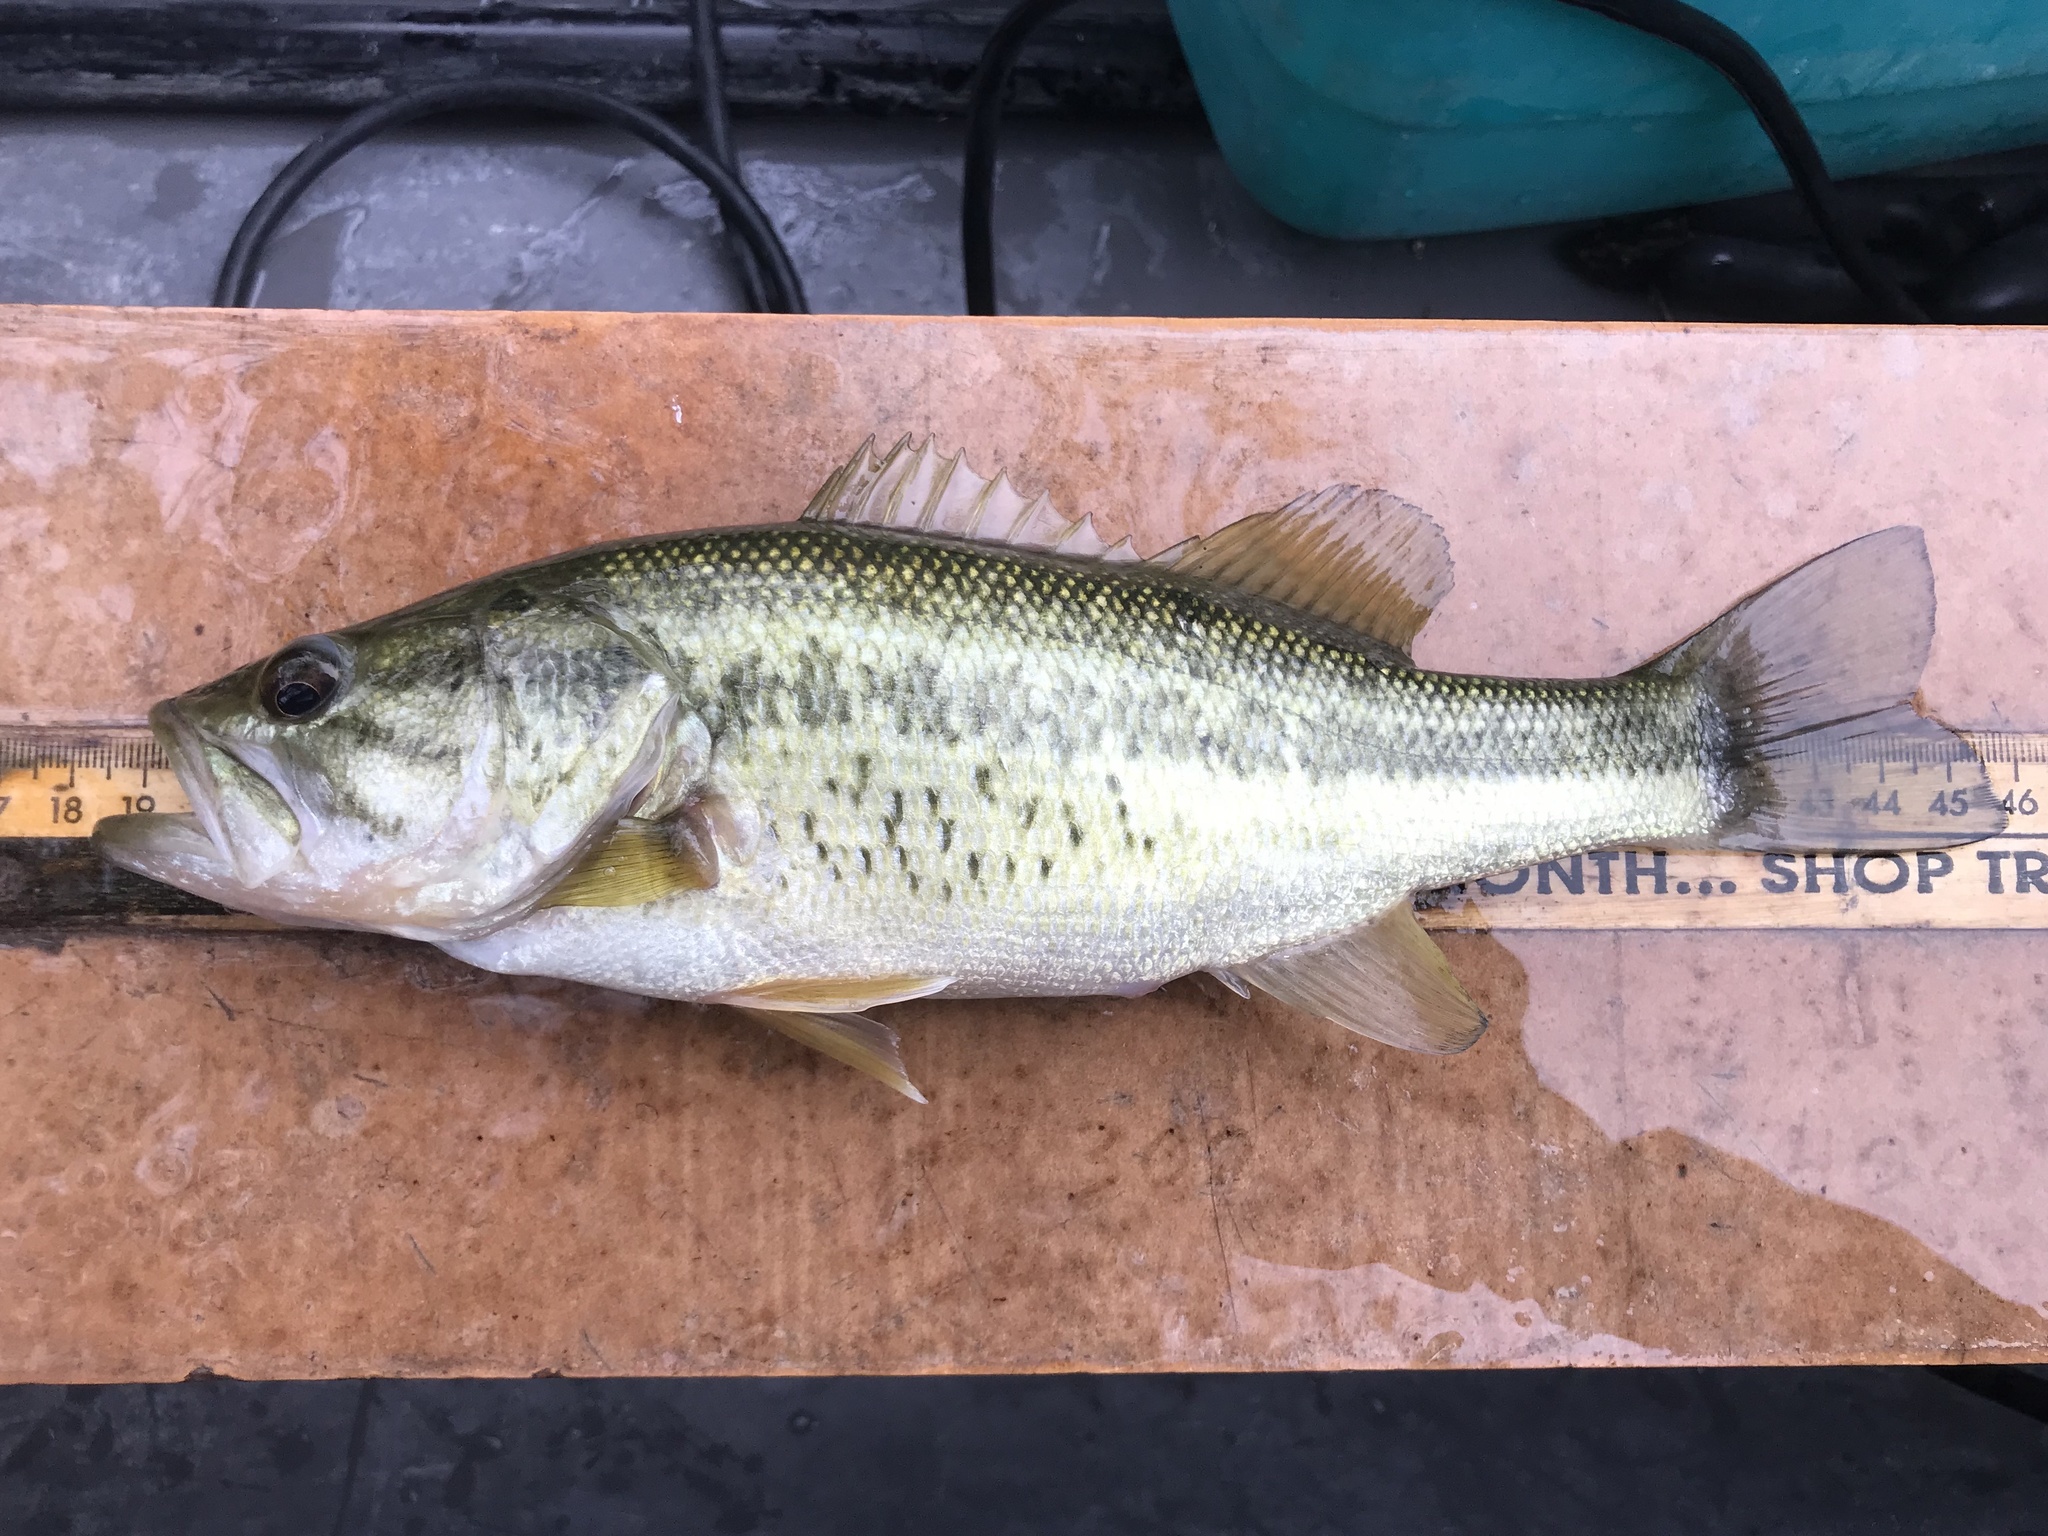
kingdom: Animalia
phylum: Chordata
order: Perciformes
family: Centrarchidae
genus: Micropterus
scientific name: Micropterus
